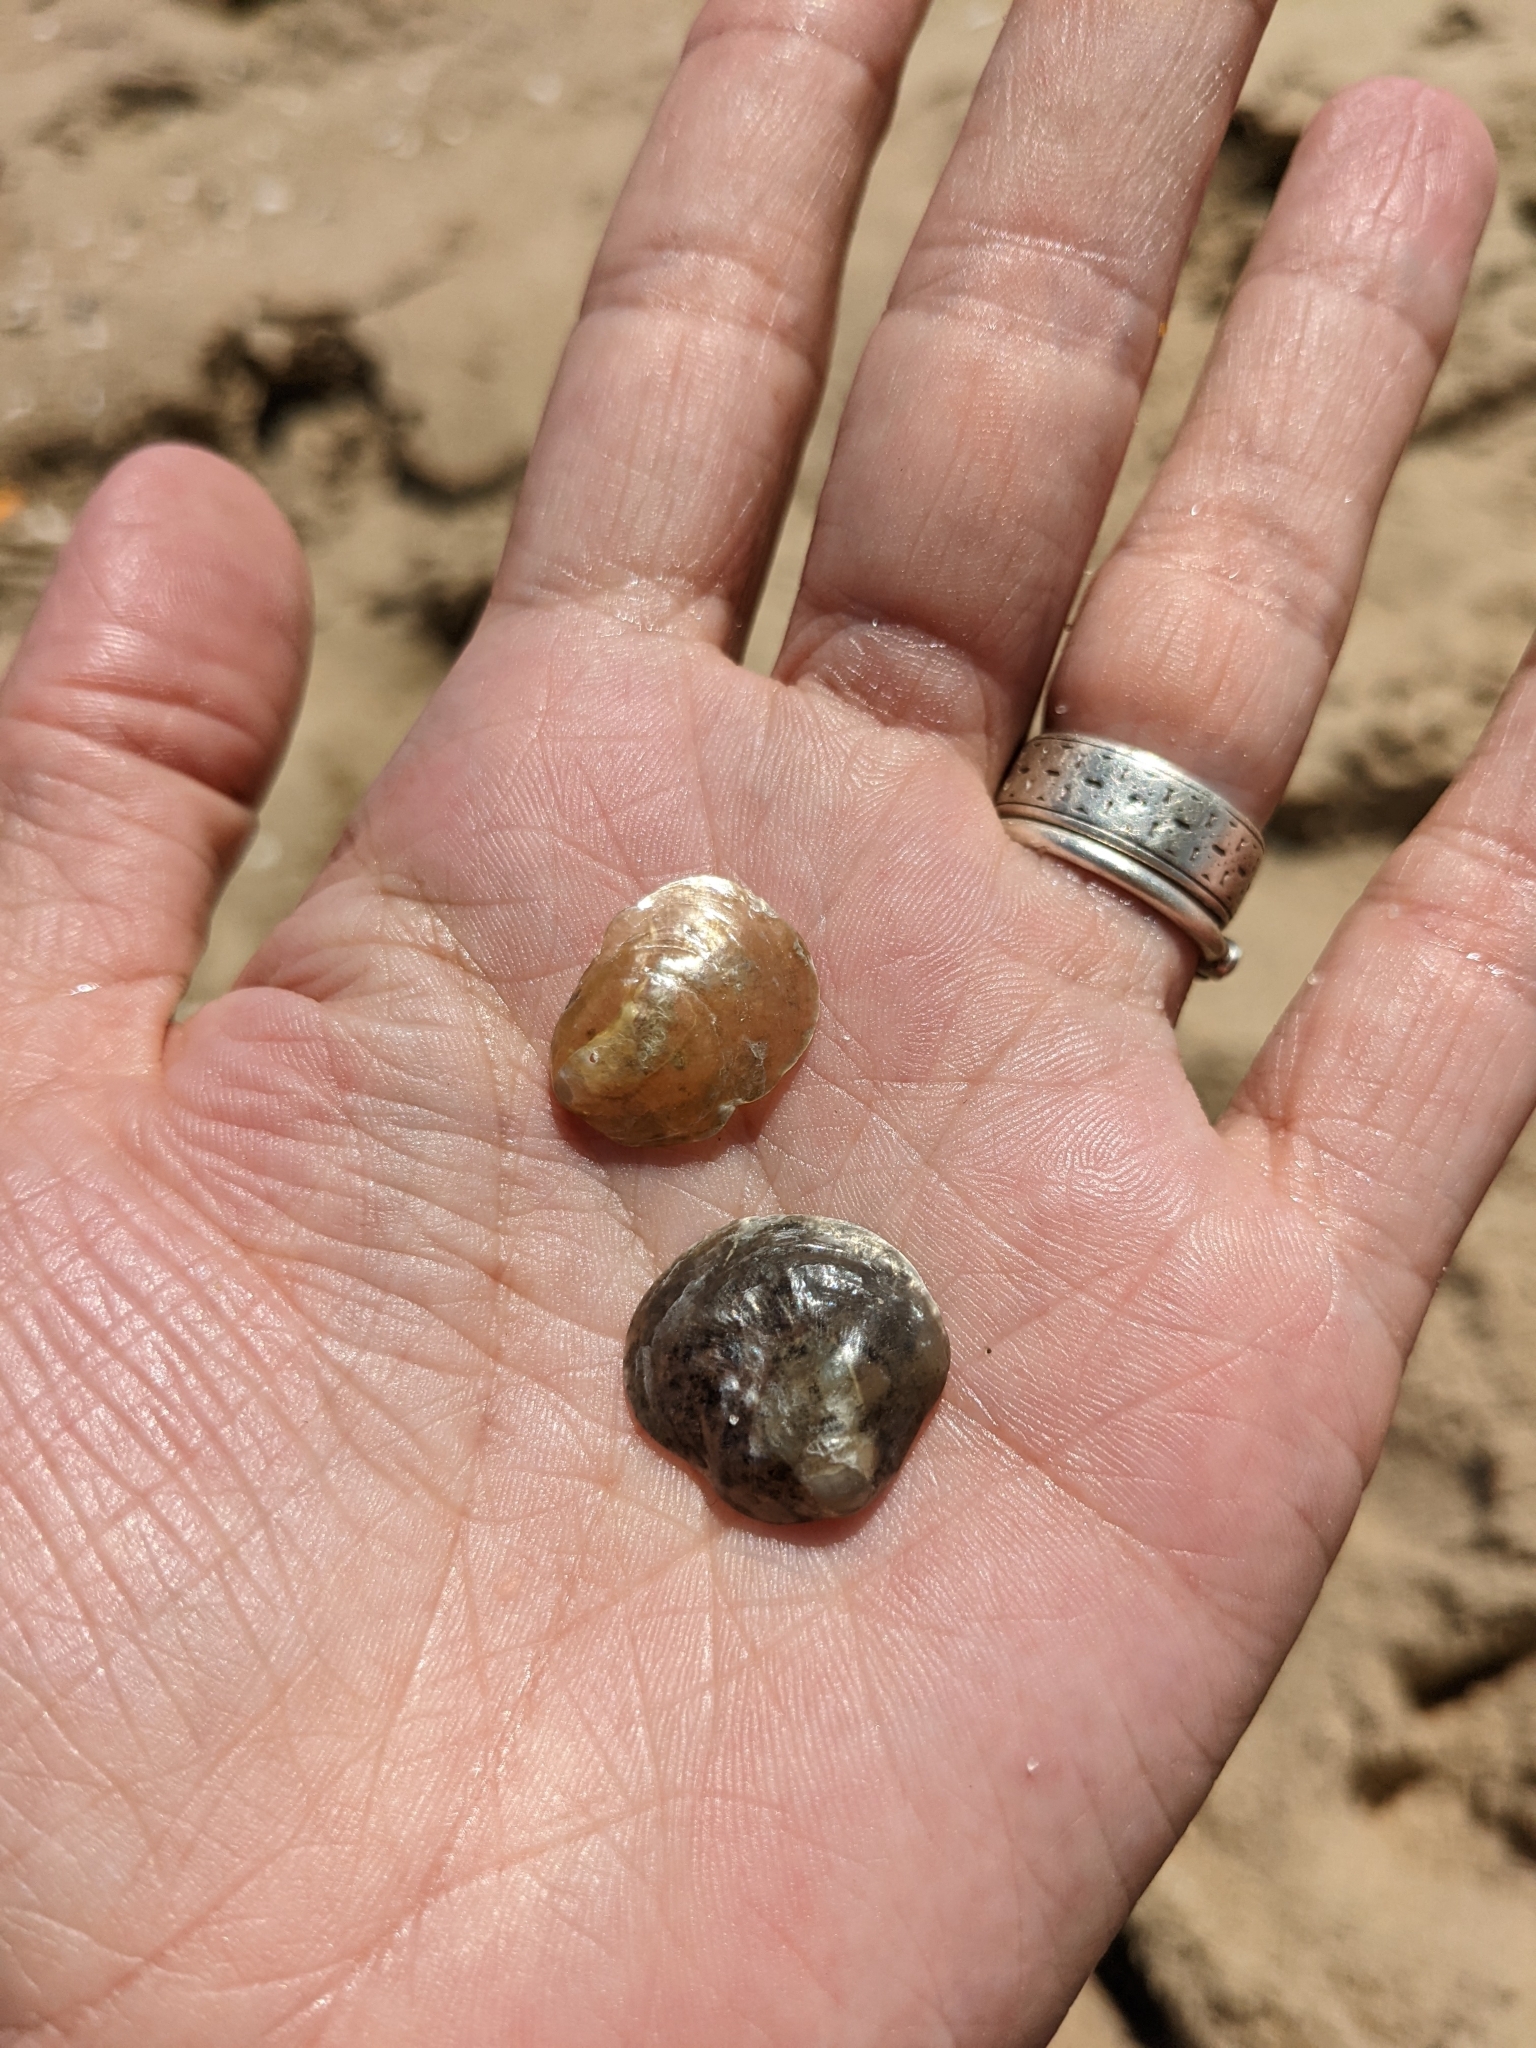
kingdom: Animalia
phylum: Mollusca
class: Bivalvia
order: Pectinida
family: Anomiidae
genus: Anomia
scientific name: Anomia simplex
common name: Common jingle shell
